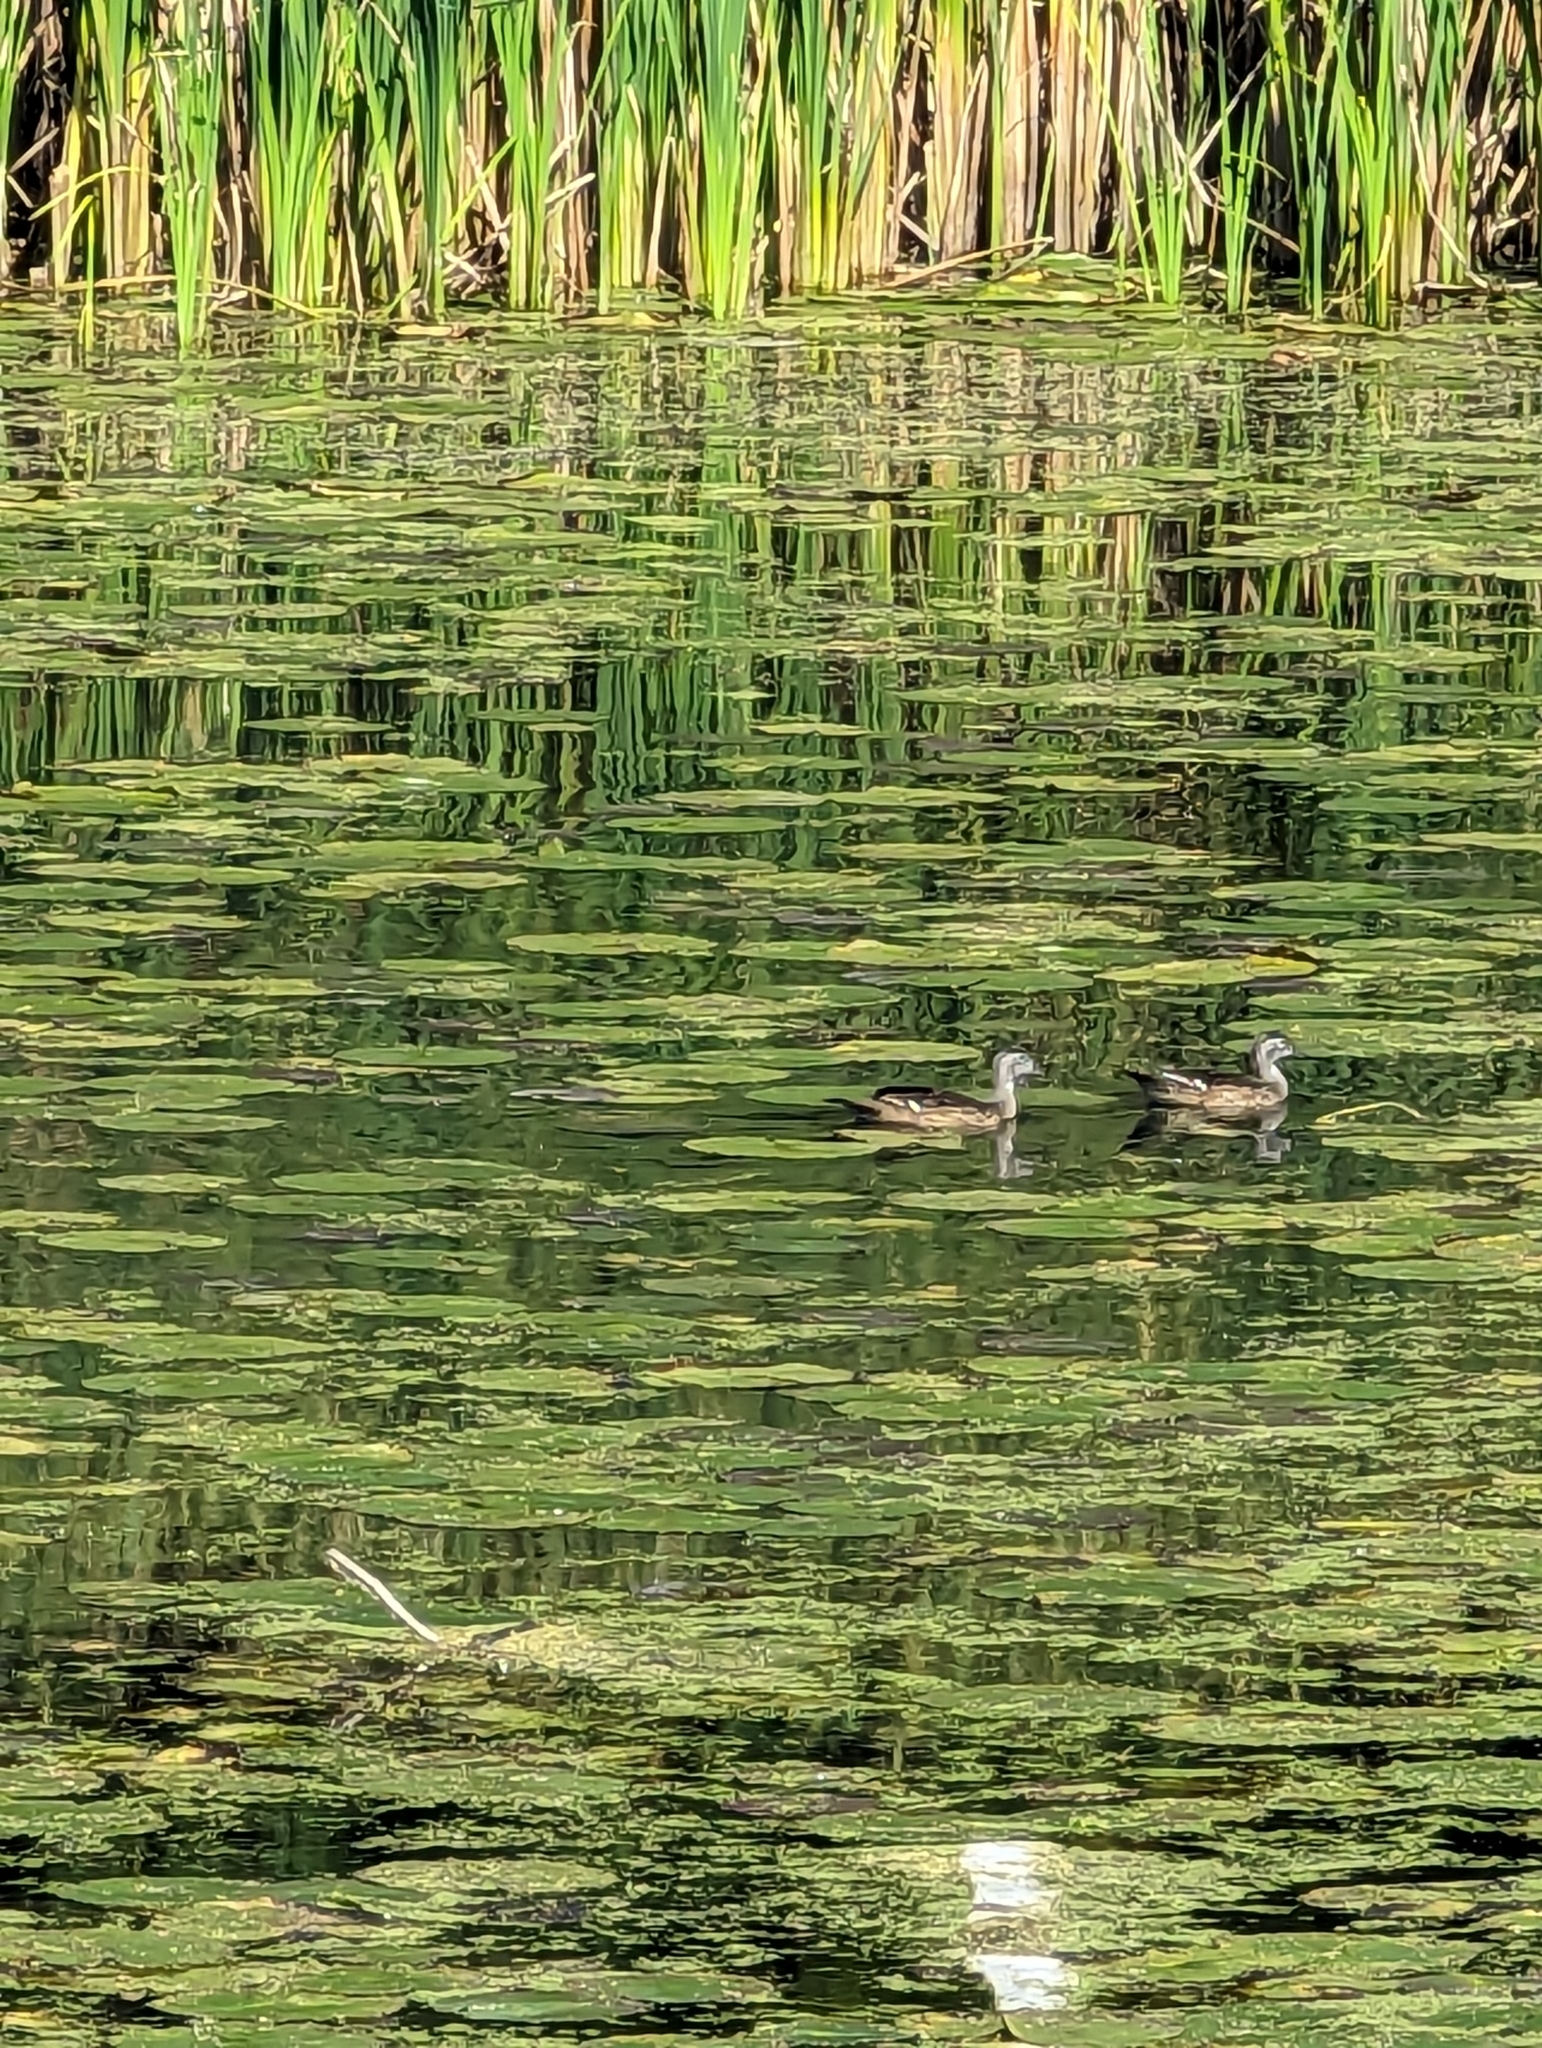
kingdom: Animalia
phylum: Chordata
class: Aves
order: Anseriformes
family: Anatidae
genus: Aix
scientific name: Aix sponsa
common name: Wood duck
